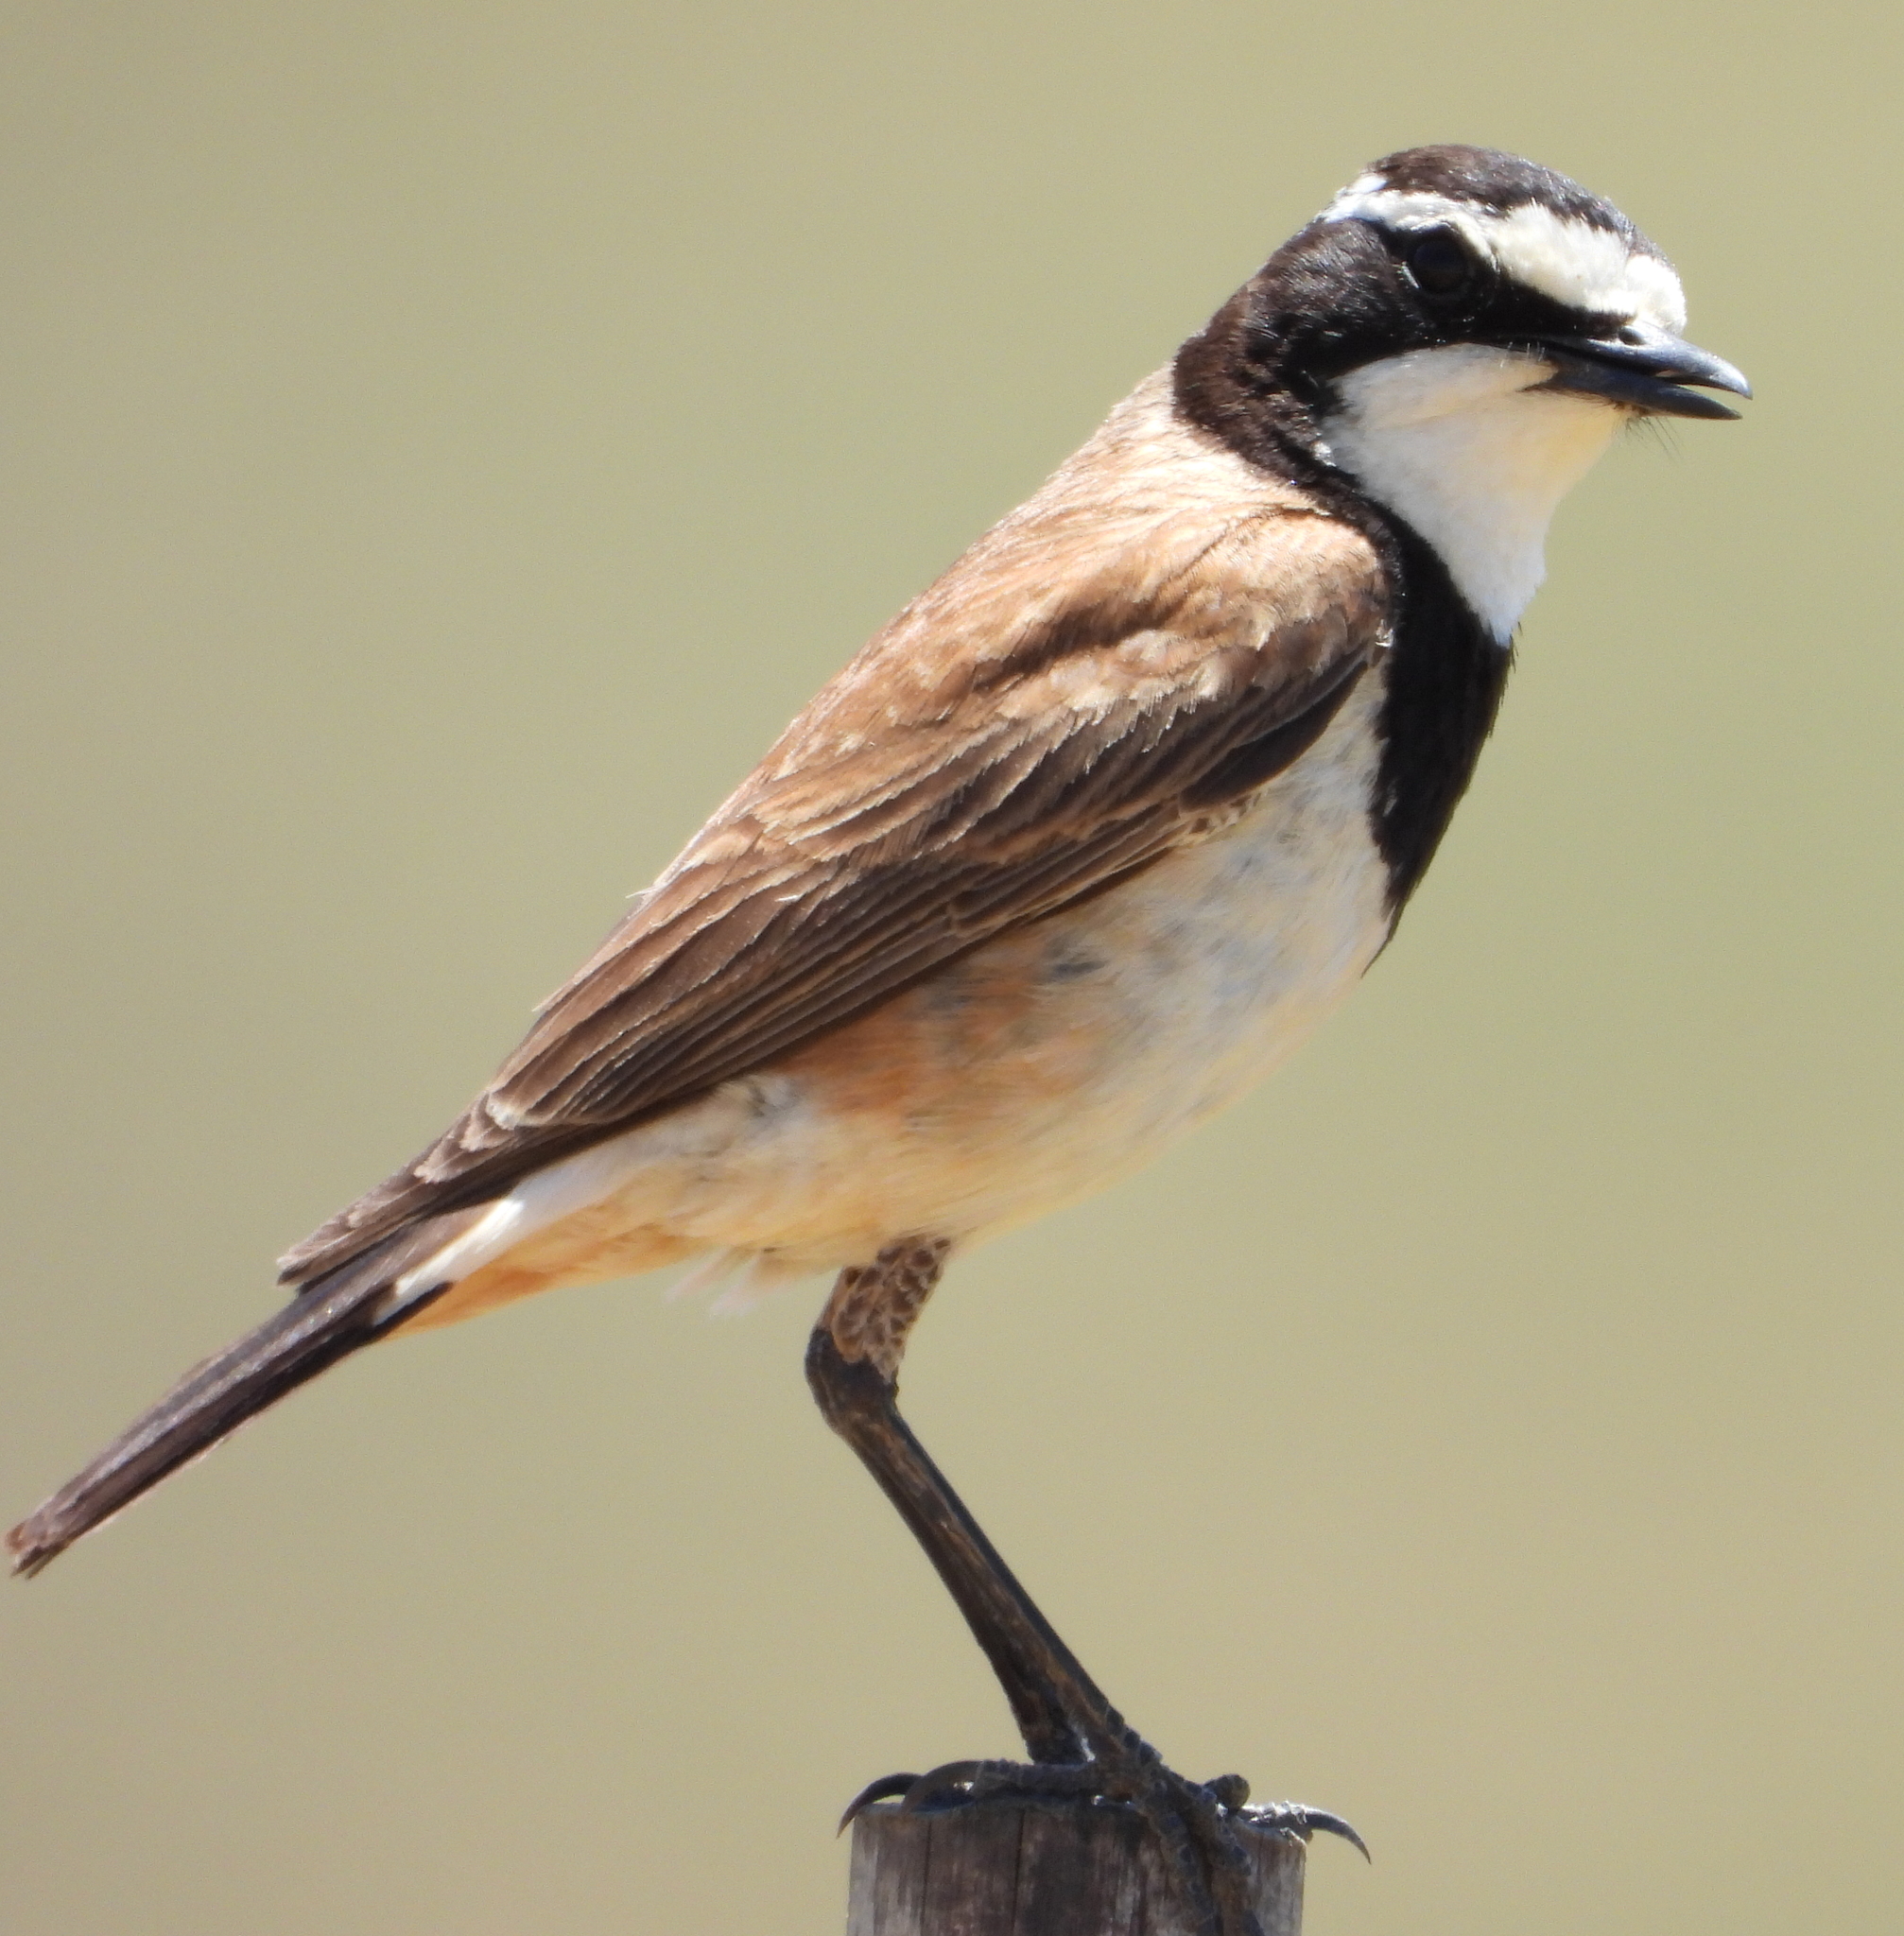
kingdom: Animalia
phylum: Chordata
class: Aves
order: Passeriformes
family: Muscicapidae
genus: Oenanthe
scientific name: Oenanthe pileata
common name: Capped wheatear
